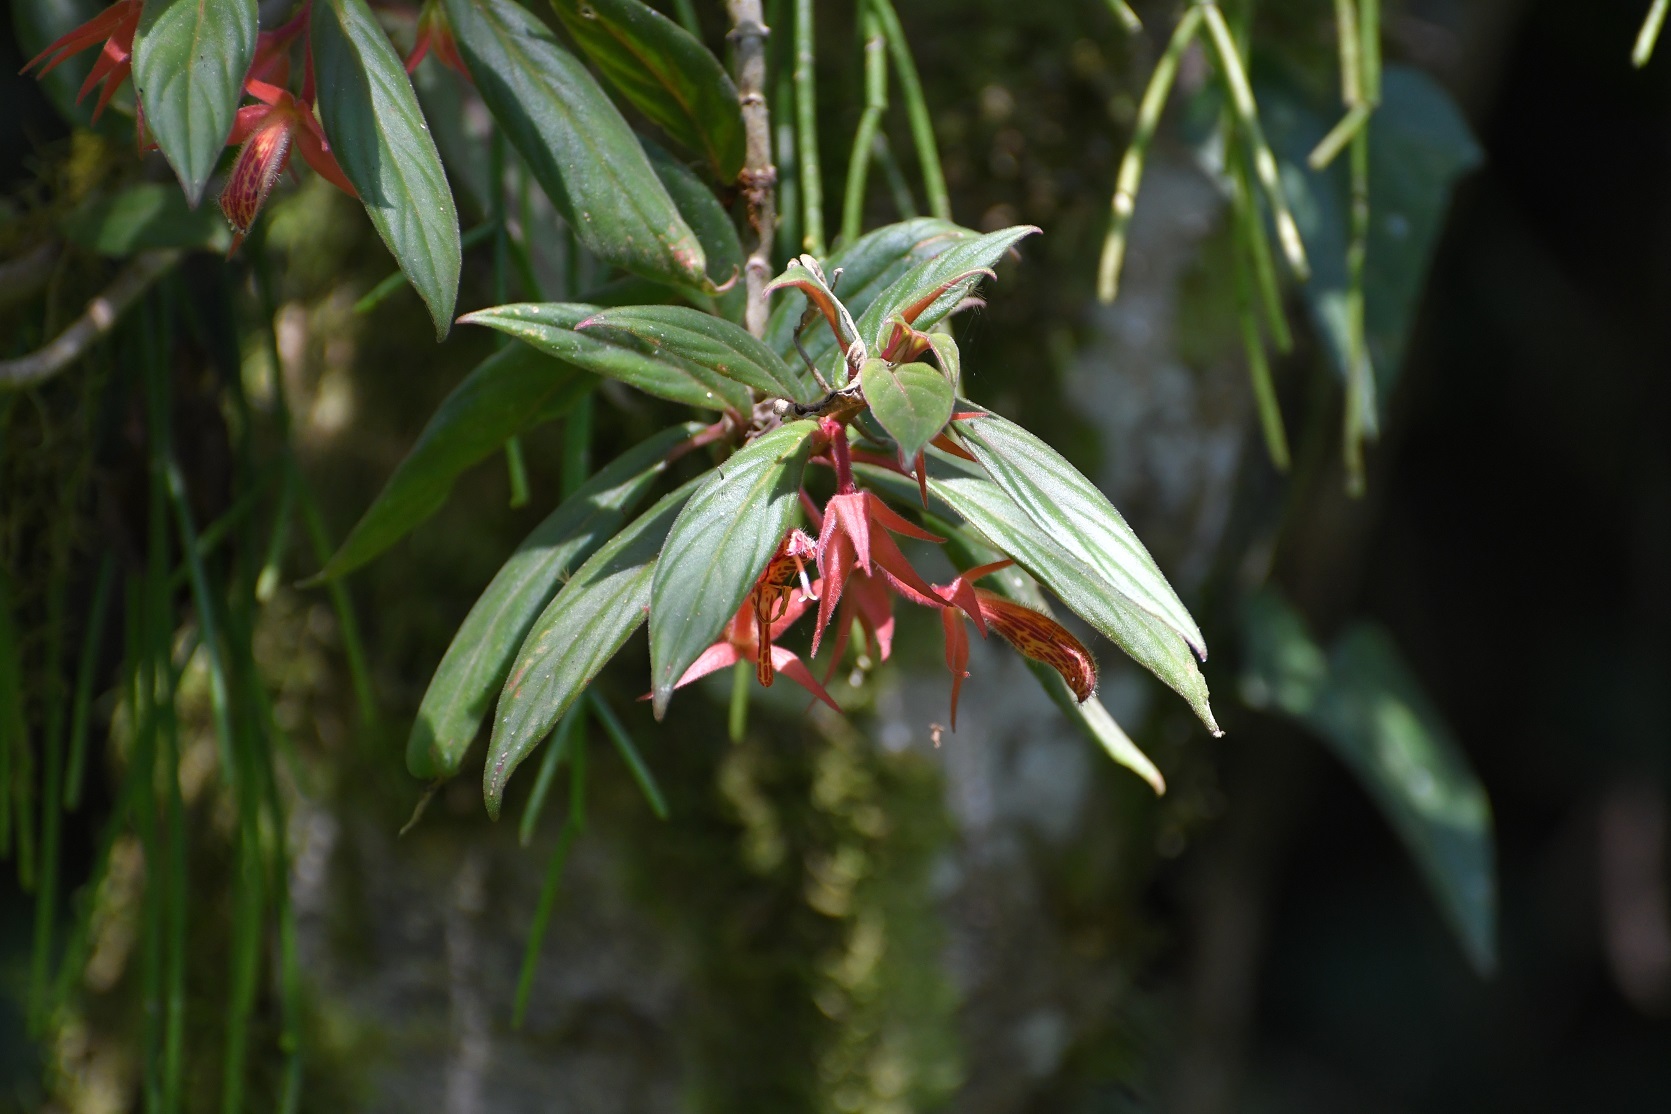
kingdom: Plantae
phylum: Tracheophyta
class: Magnoliopsida
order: Lamiales
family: Gesneriaceae
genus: Columnea
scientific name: Columnea schiedeana
